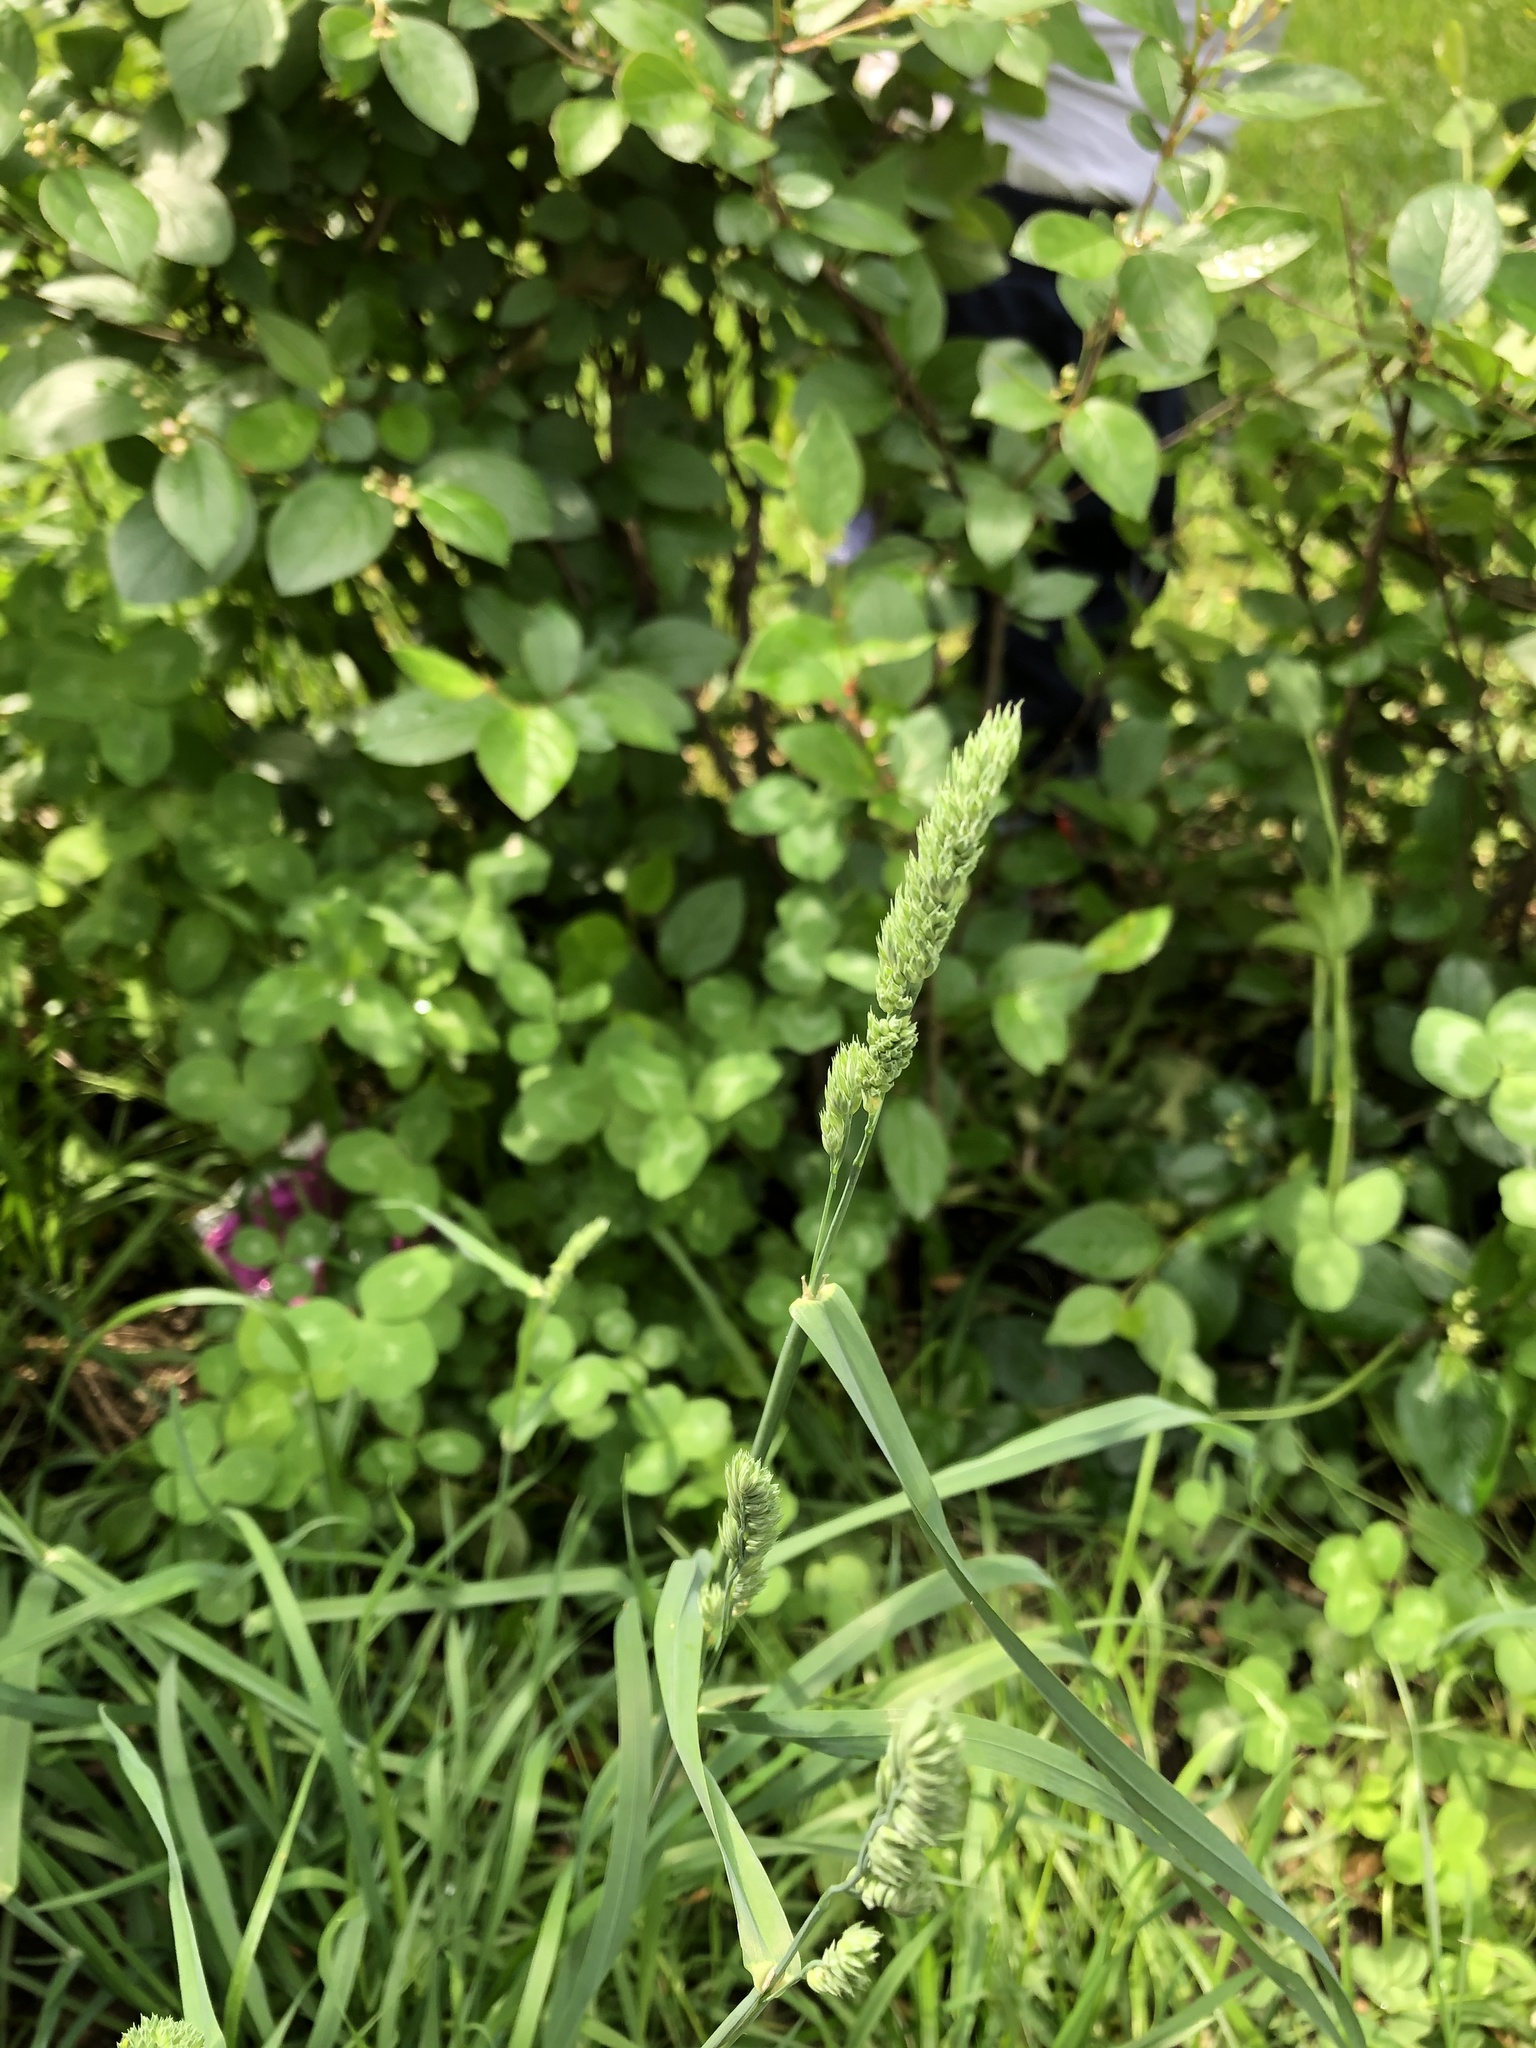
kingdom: Plantae
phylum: Tracheophyta
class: Liliopsida
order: Poales
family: Poaceae
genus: Dactylis
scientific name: Dactylis glomerata
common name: Orchardgrass
